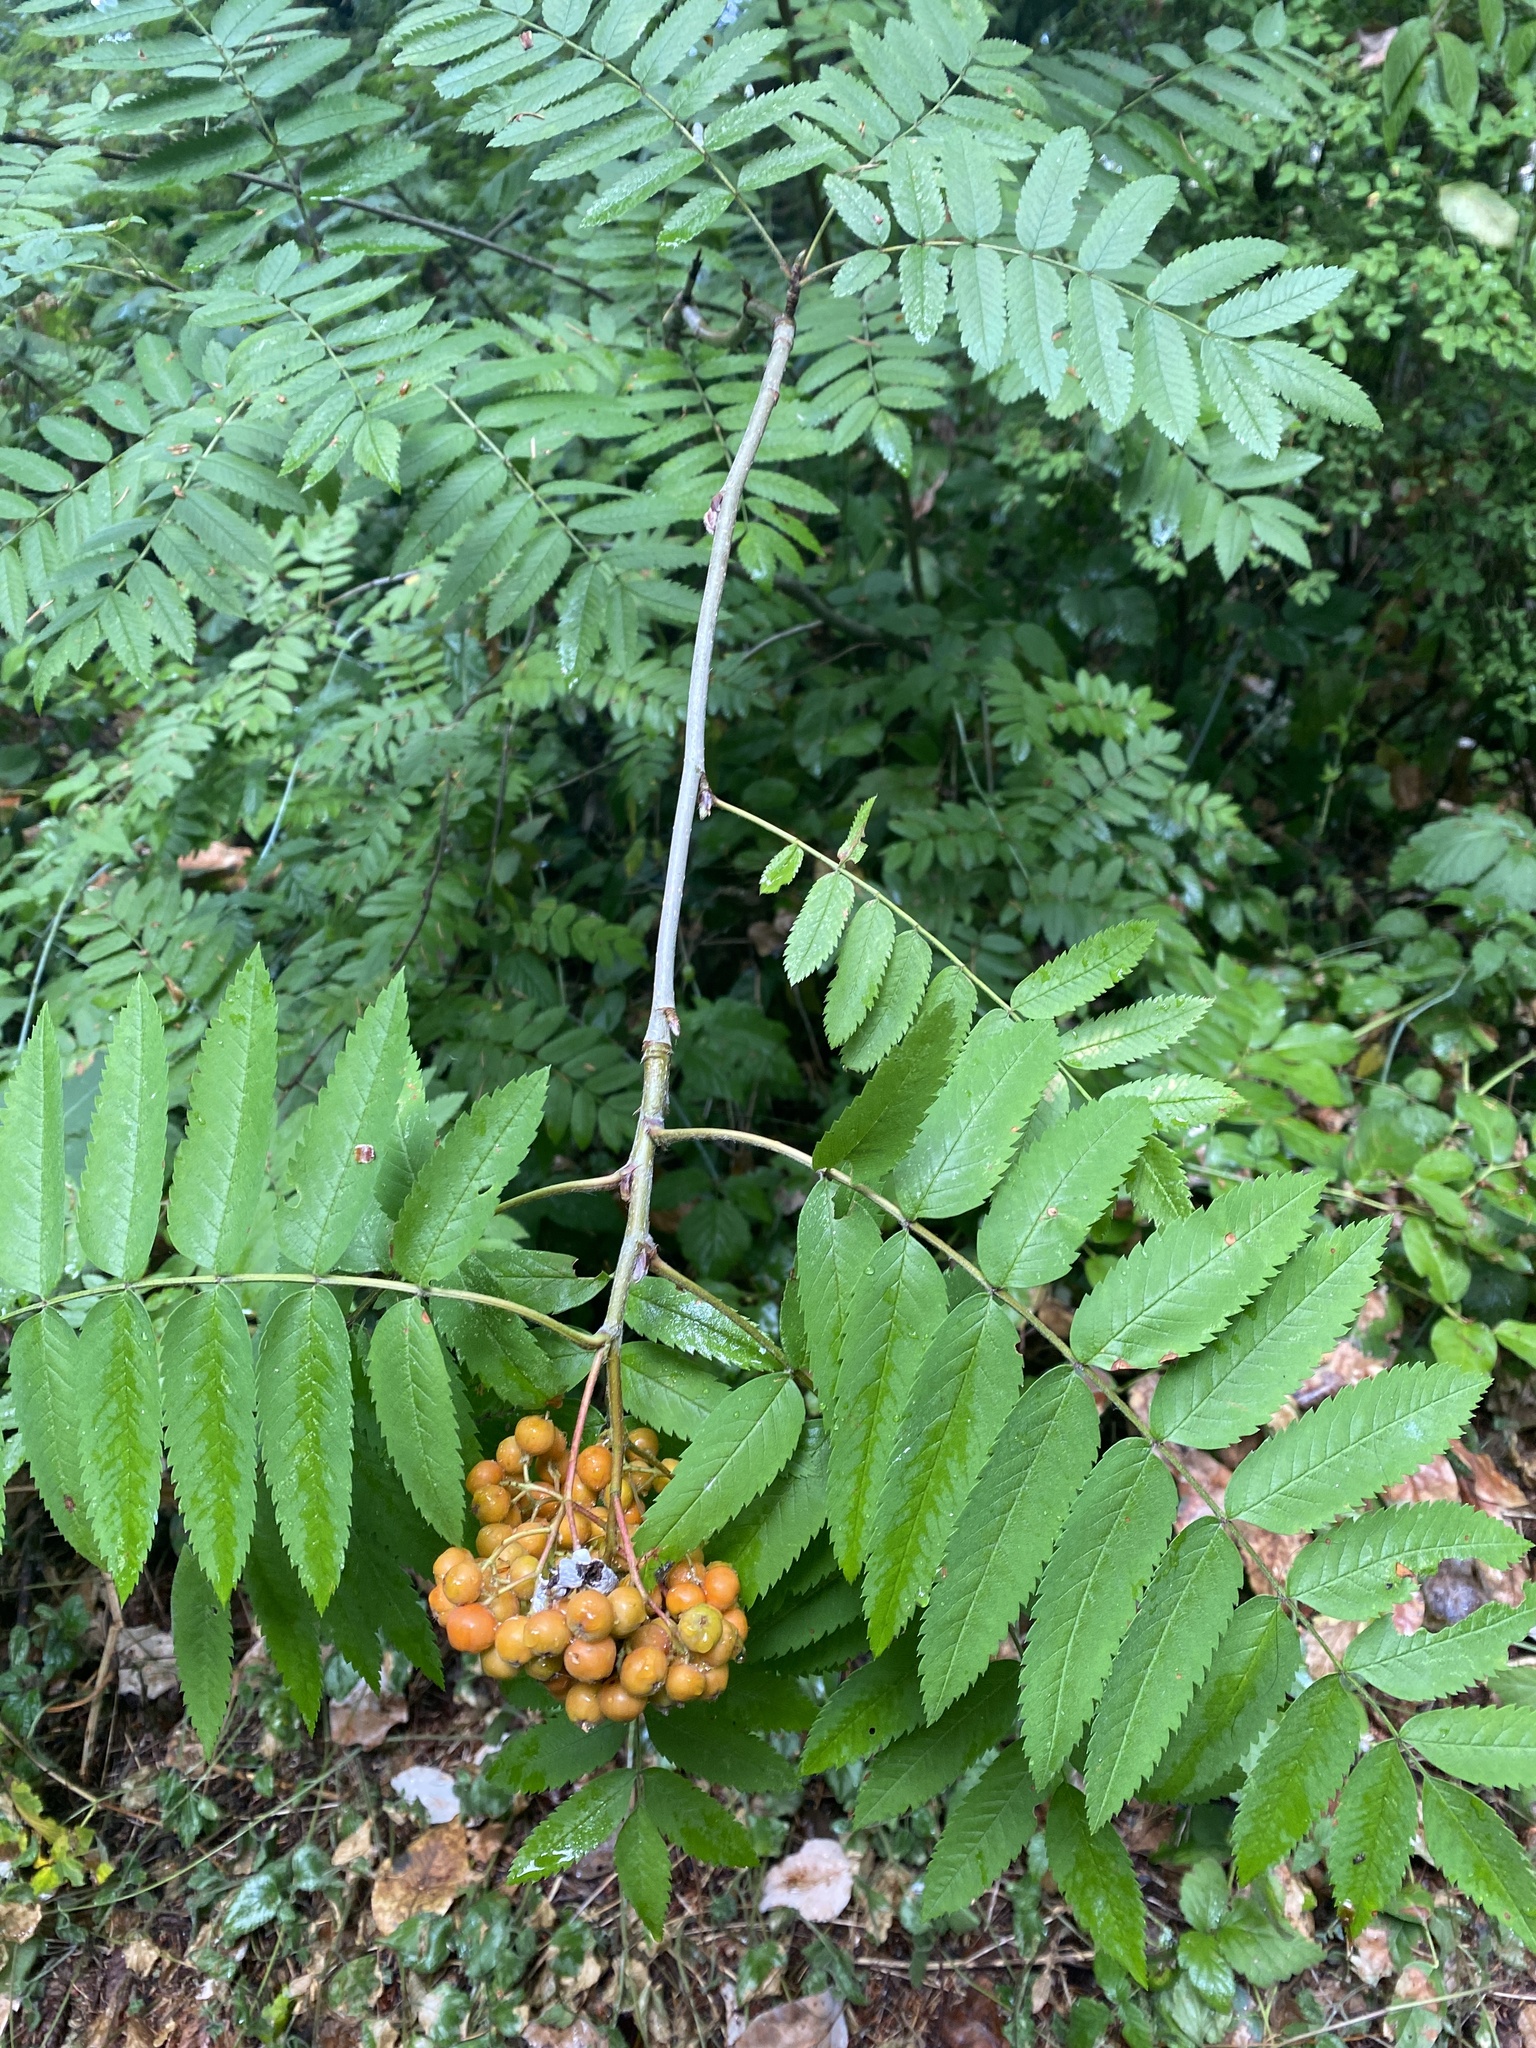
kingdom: Plantae
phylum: Tracheophyta
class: Magnoliopsida
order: Rosales
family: Rosaceae
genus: Sorbus
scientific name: Sorbus aucuparia
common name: Rowan
